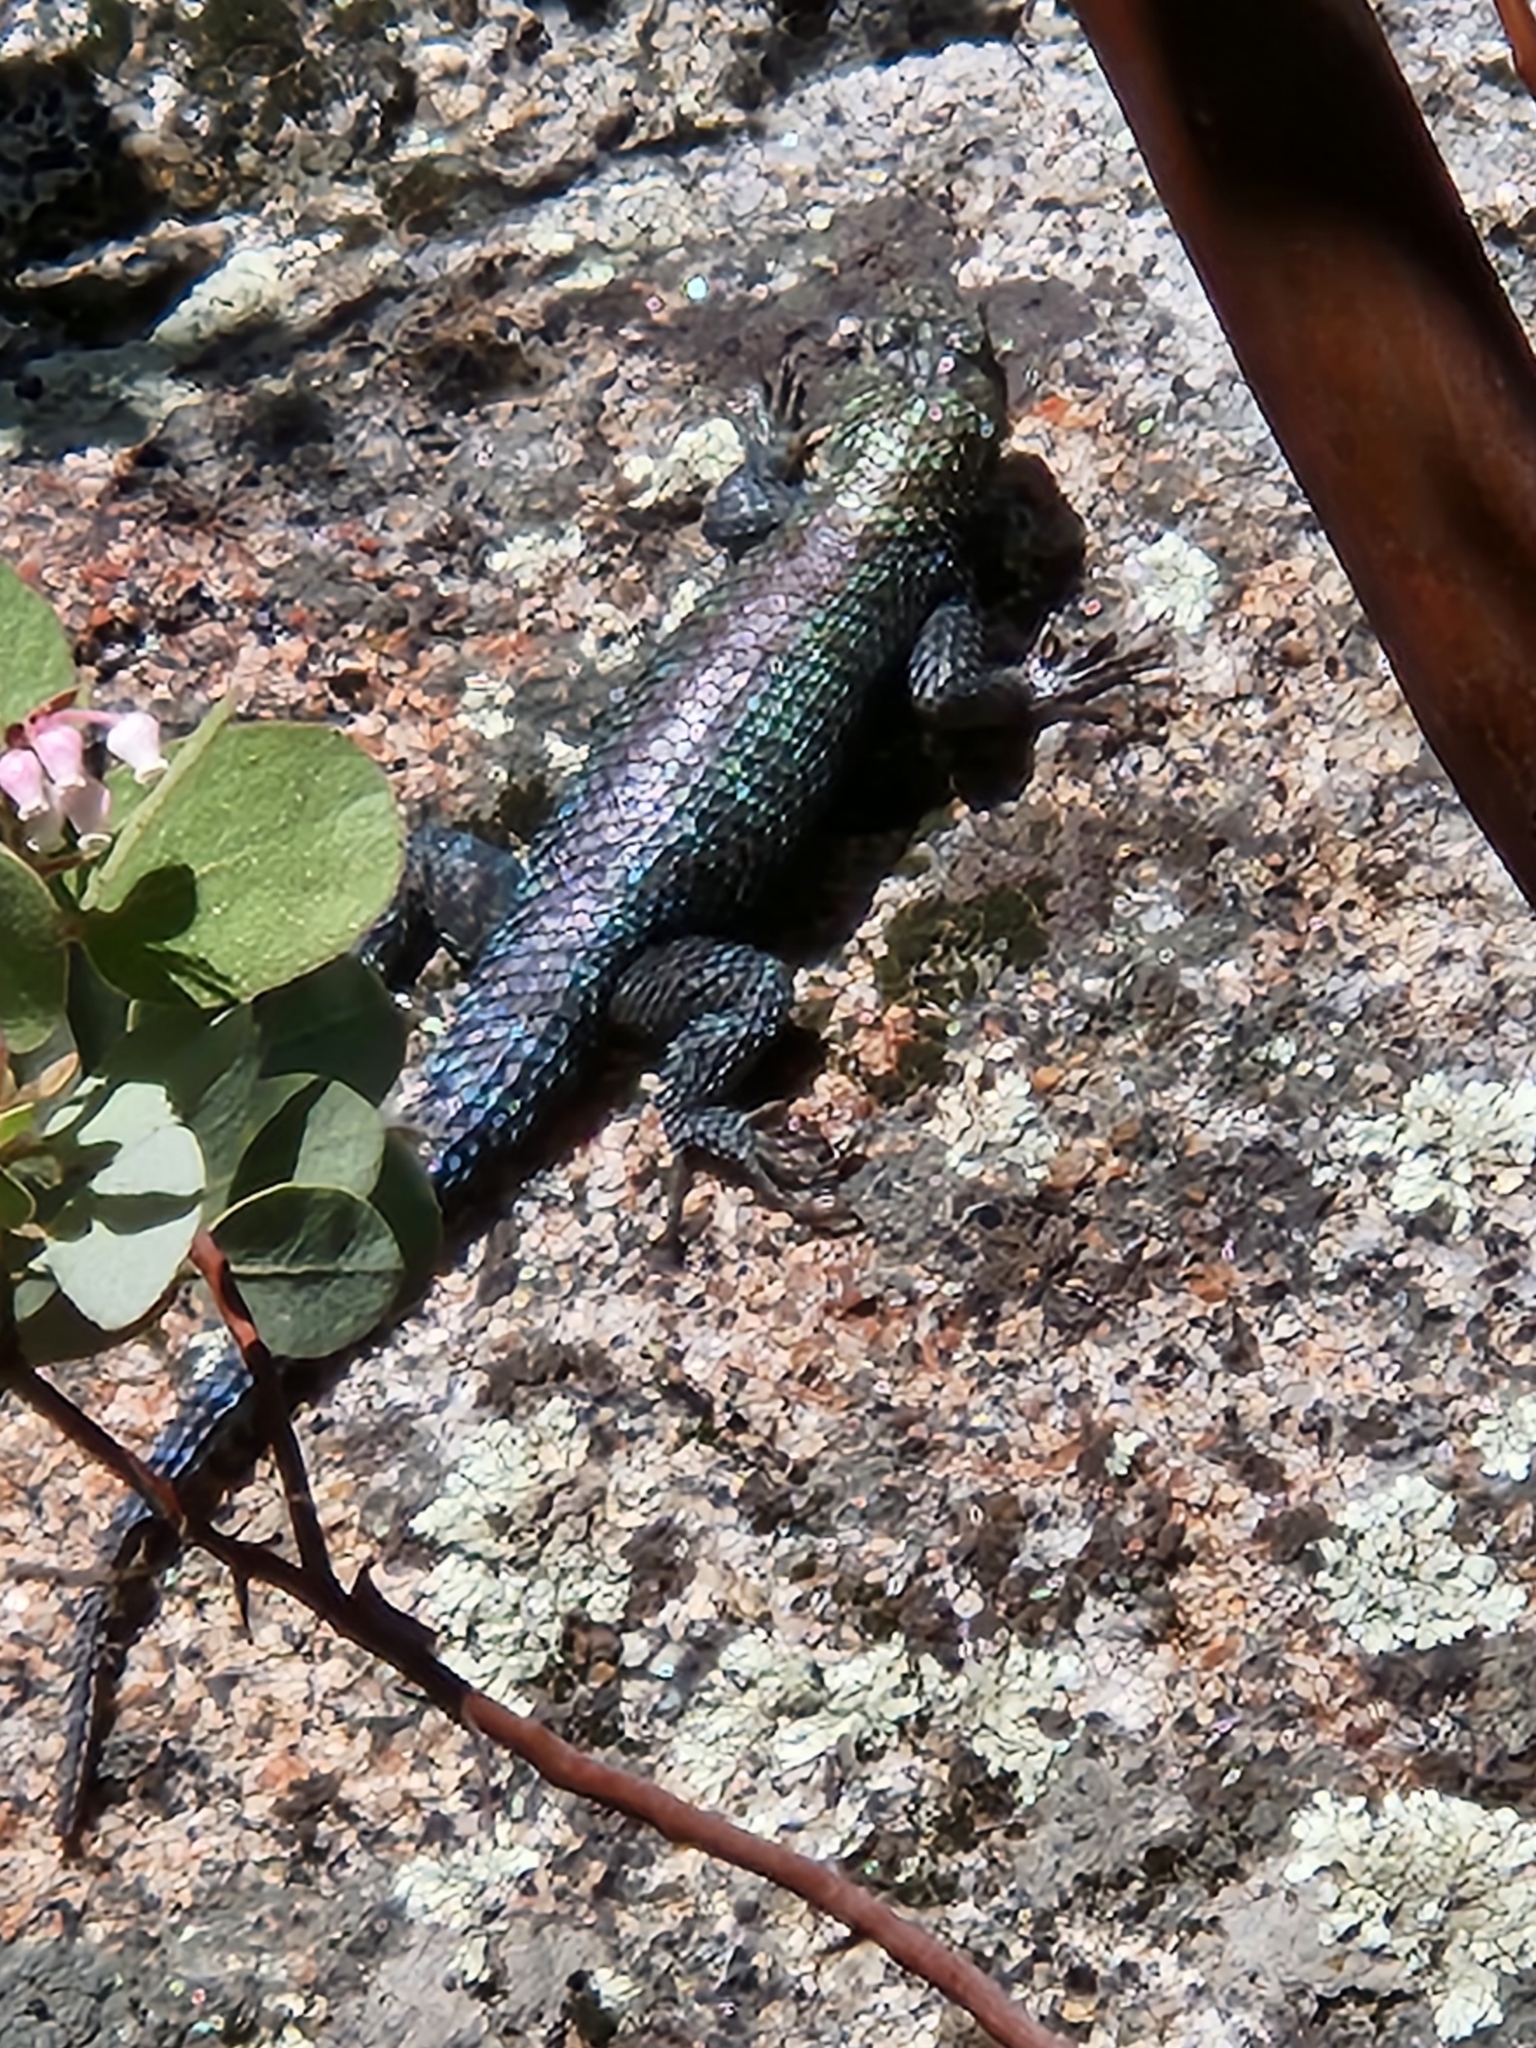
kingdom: Animalia
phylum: Chordata
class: Squamata
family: Phrynosomatidae
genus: Sceloporus
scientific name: Sceloporus orcutti
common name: Granite spiny lizard
